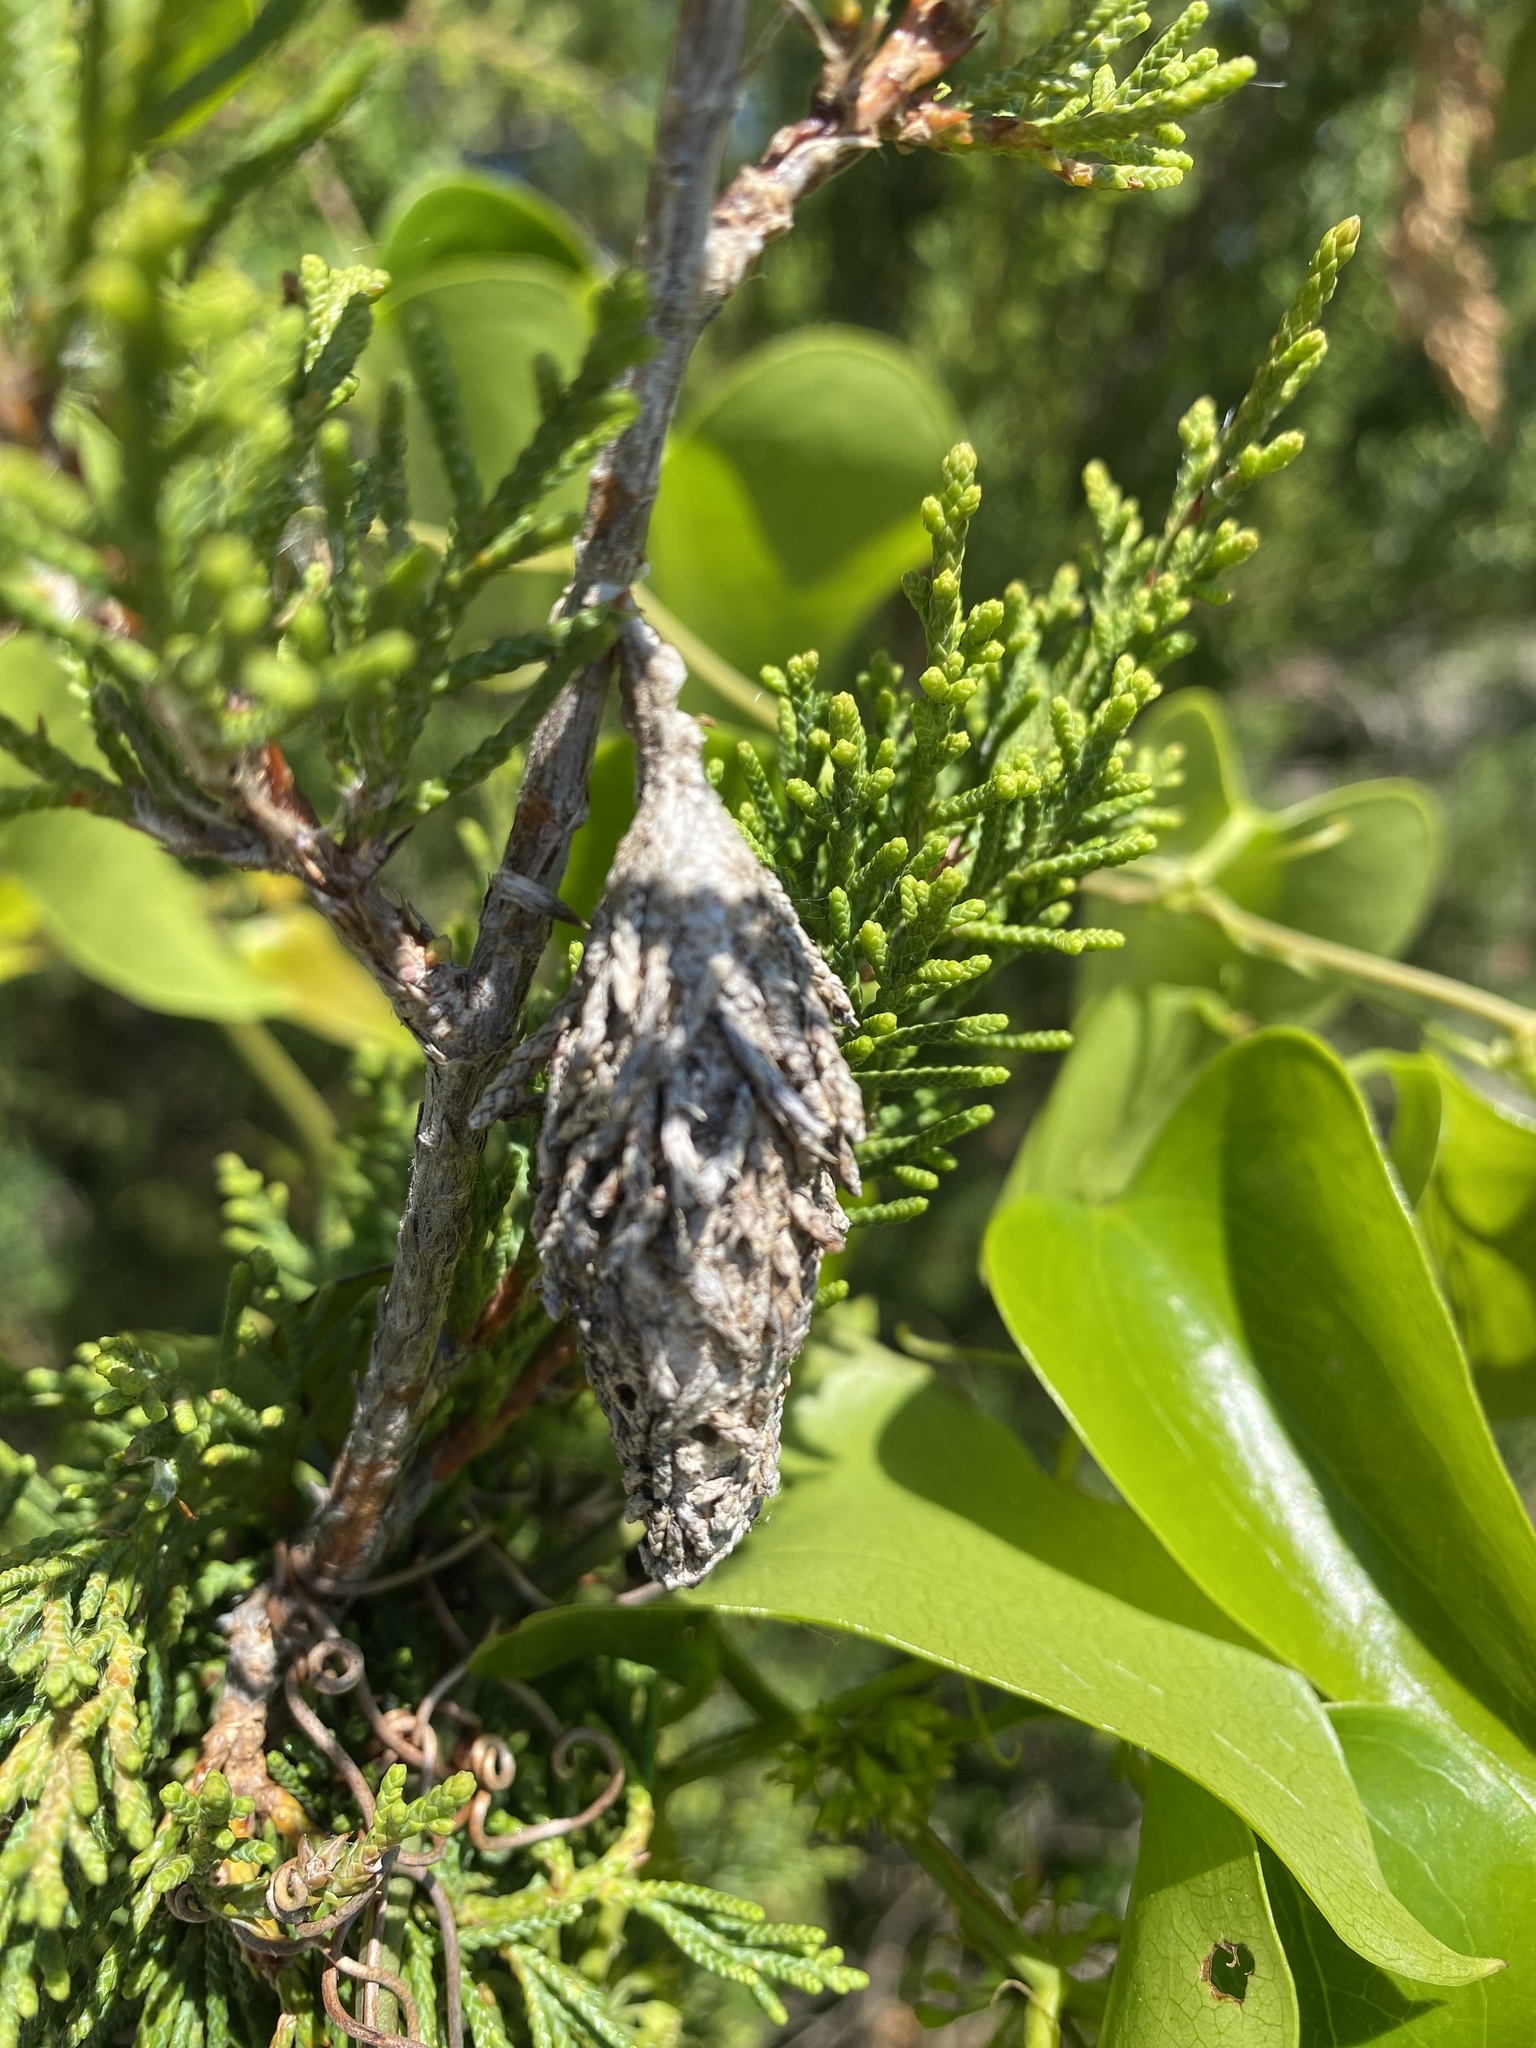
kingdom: Animalia
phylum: Arthropoda
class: Insecta
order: Lepidoptera
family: Psychidae
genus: Thyridopteryx
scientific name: Thyridopteryx ephemeraeformis
